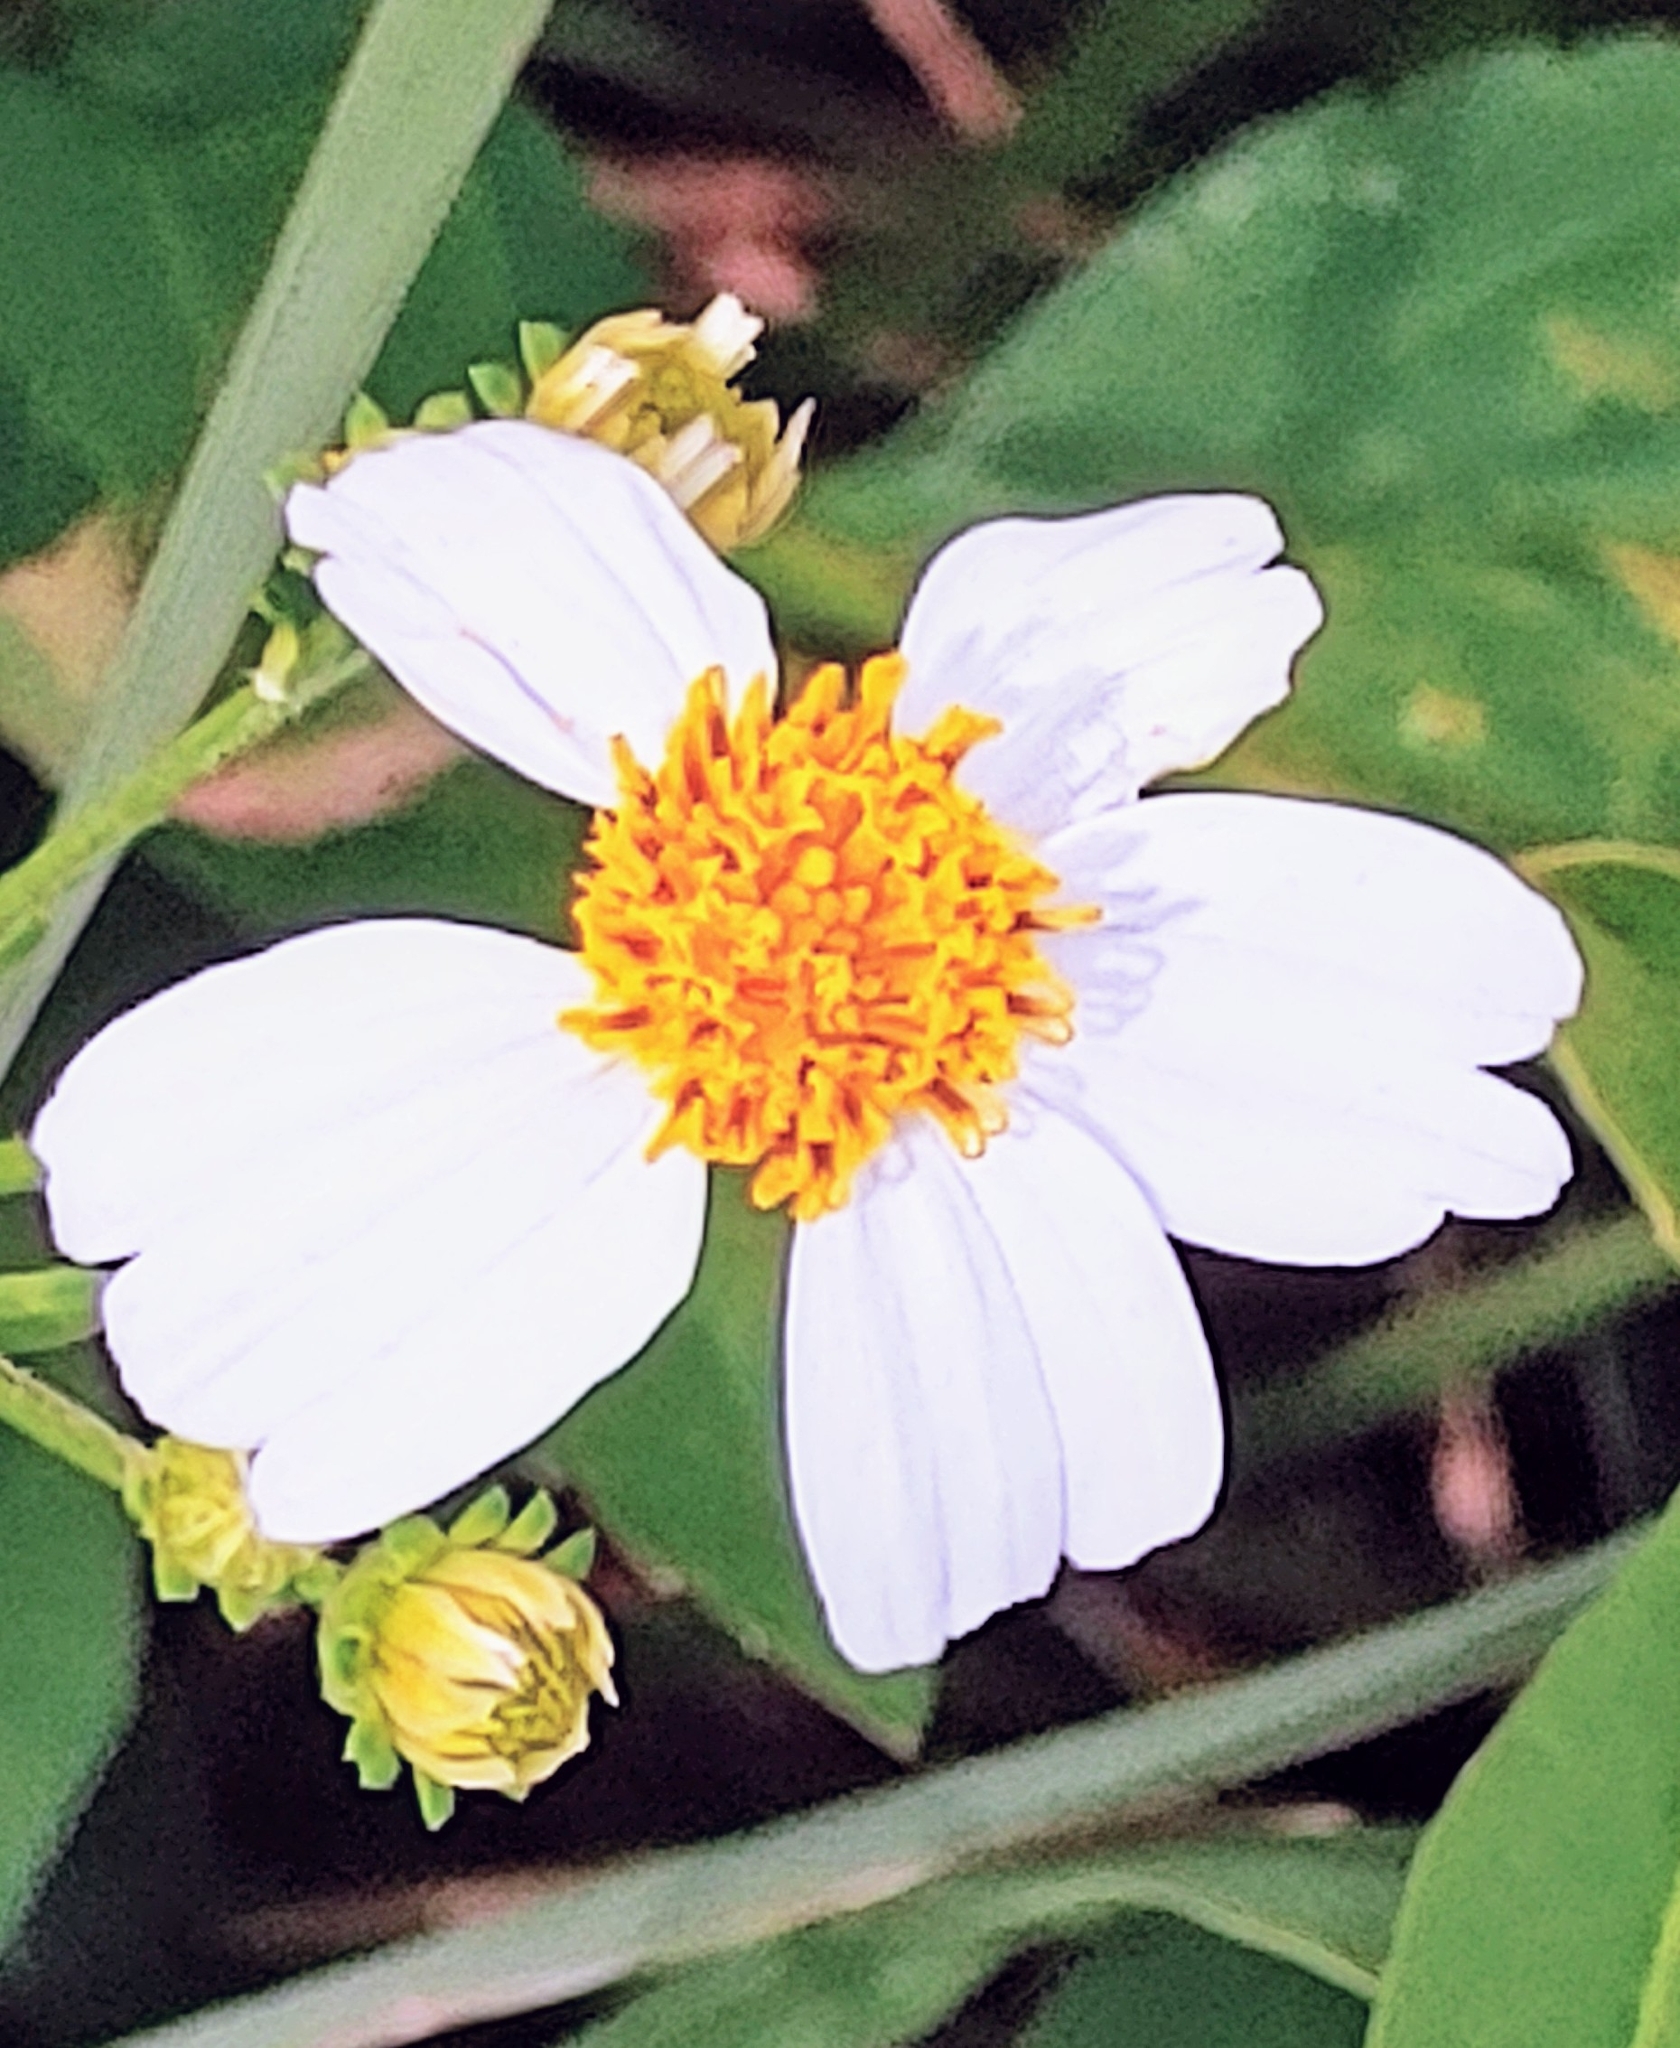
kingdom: Plantae
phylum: Tracheophyta
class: Magnoliopsida
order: Asterales
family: Asteraceae
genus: Bidens
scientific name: Bidens alba
